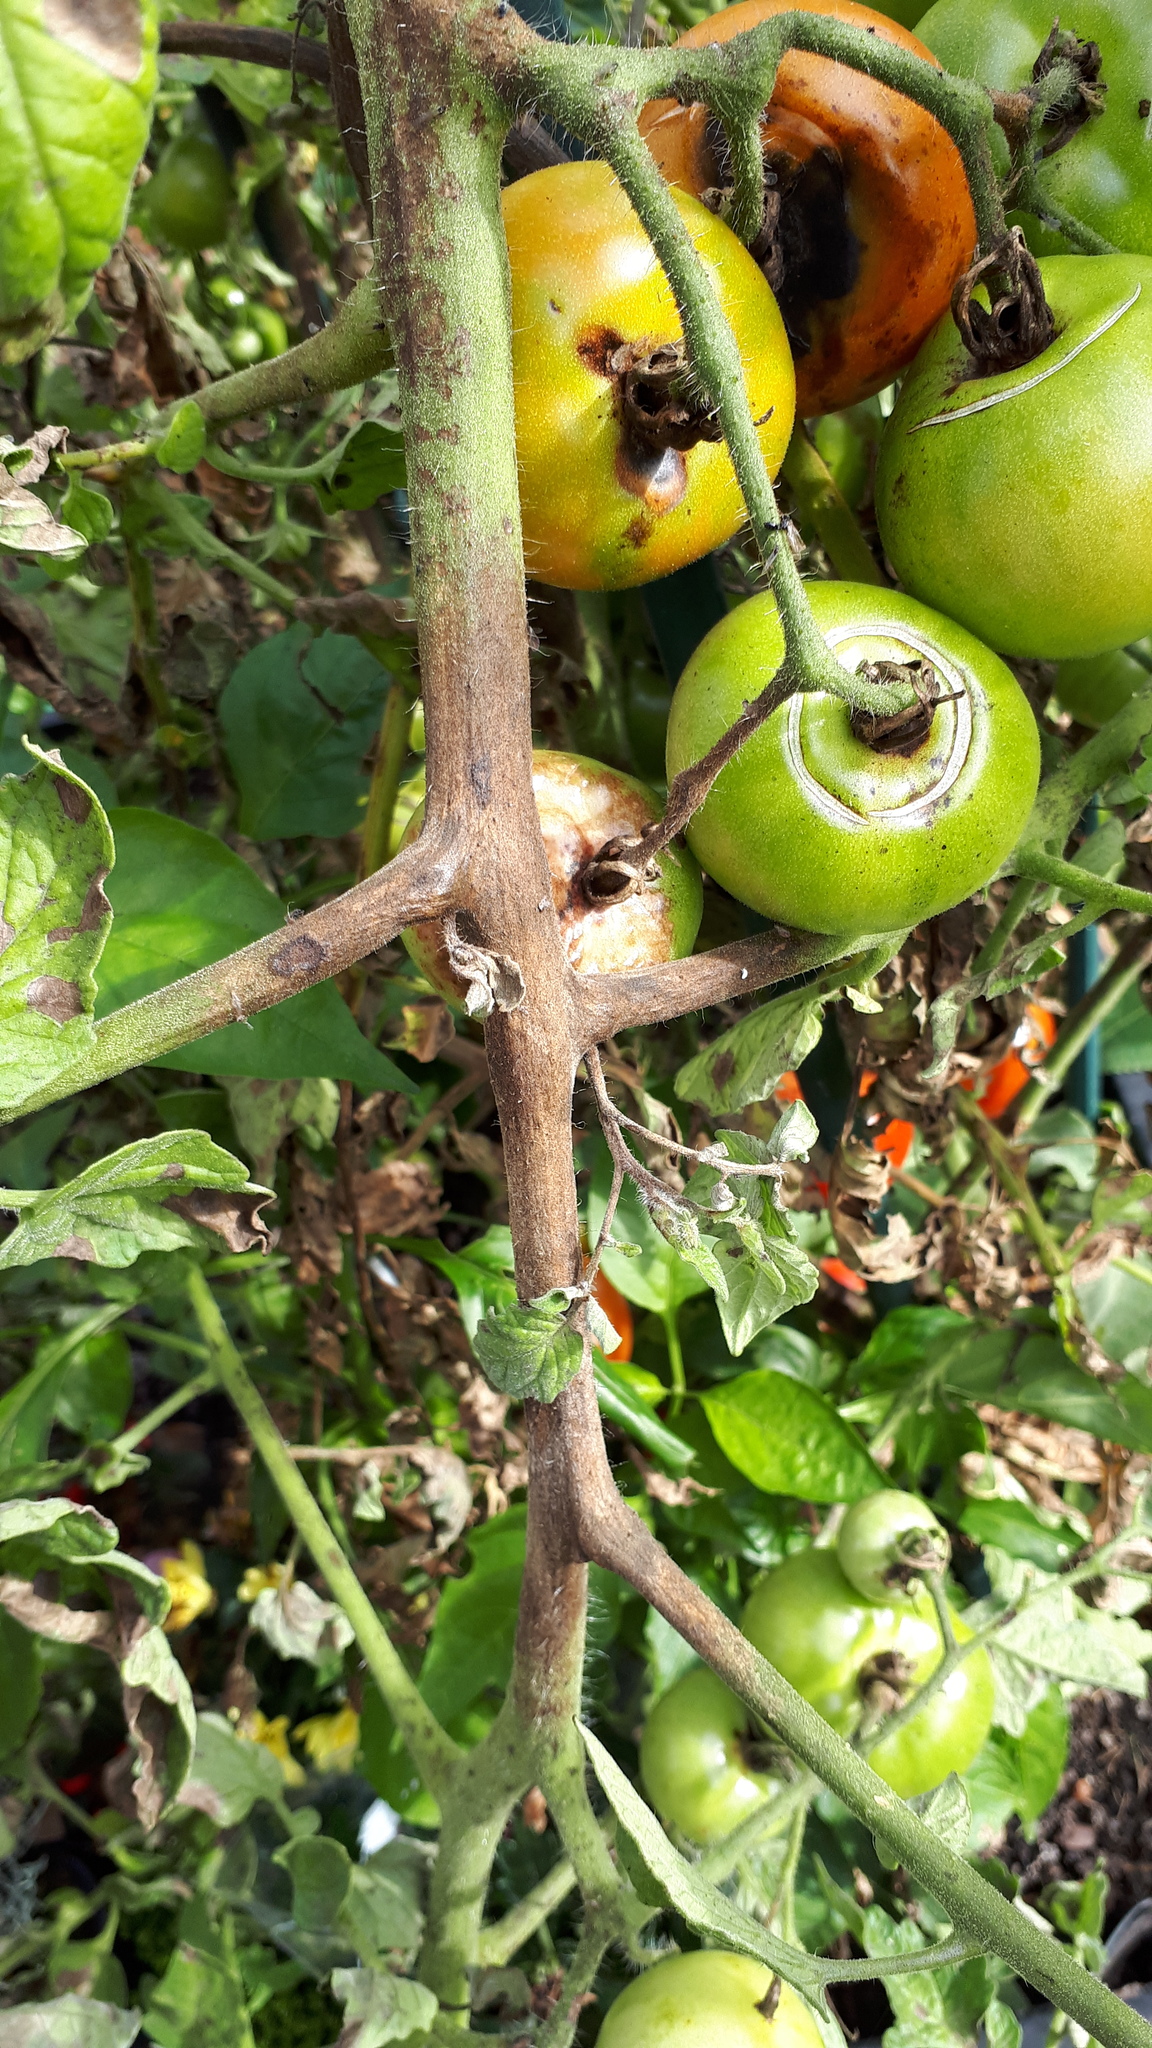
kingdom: Chromista
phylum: Oomycota
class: Peronosporea
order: Peronosporales
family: Peronosporaceae
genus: Phytophthora
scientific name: Phytophthora infestans
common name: Potato blight
